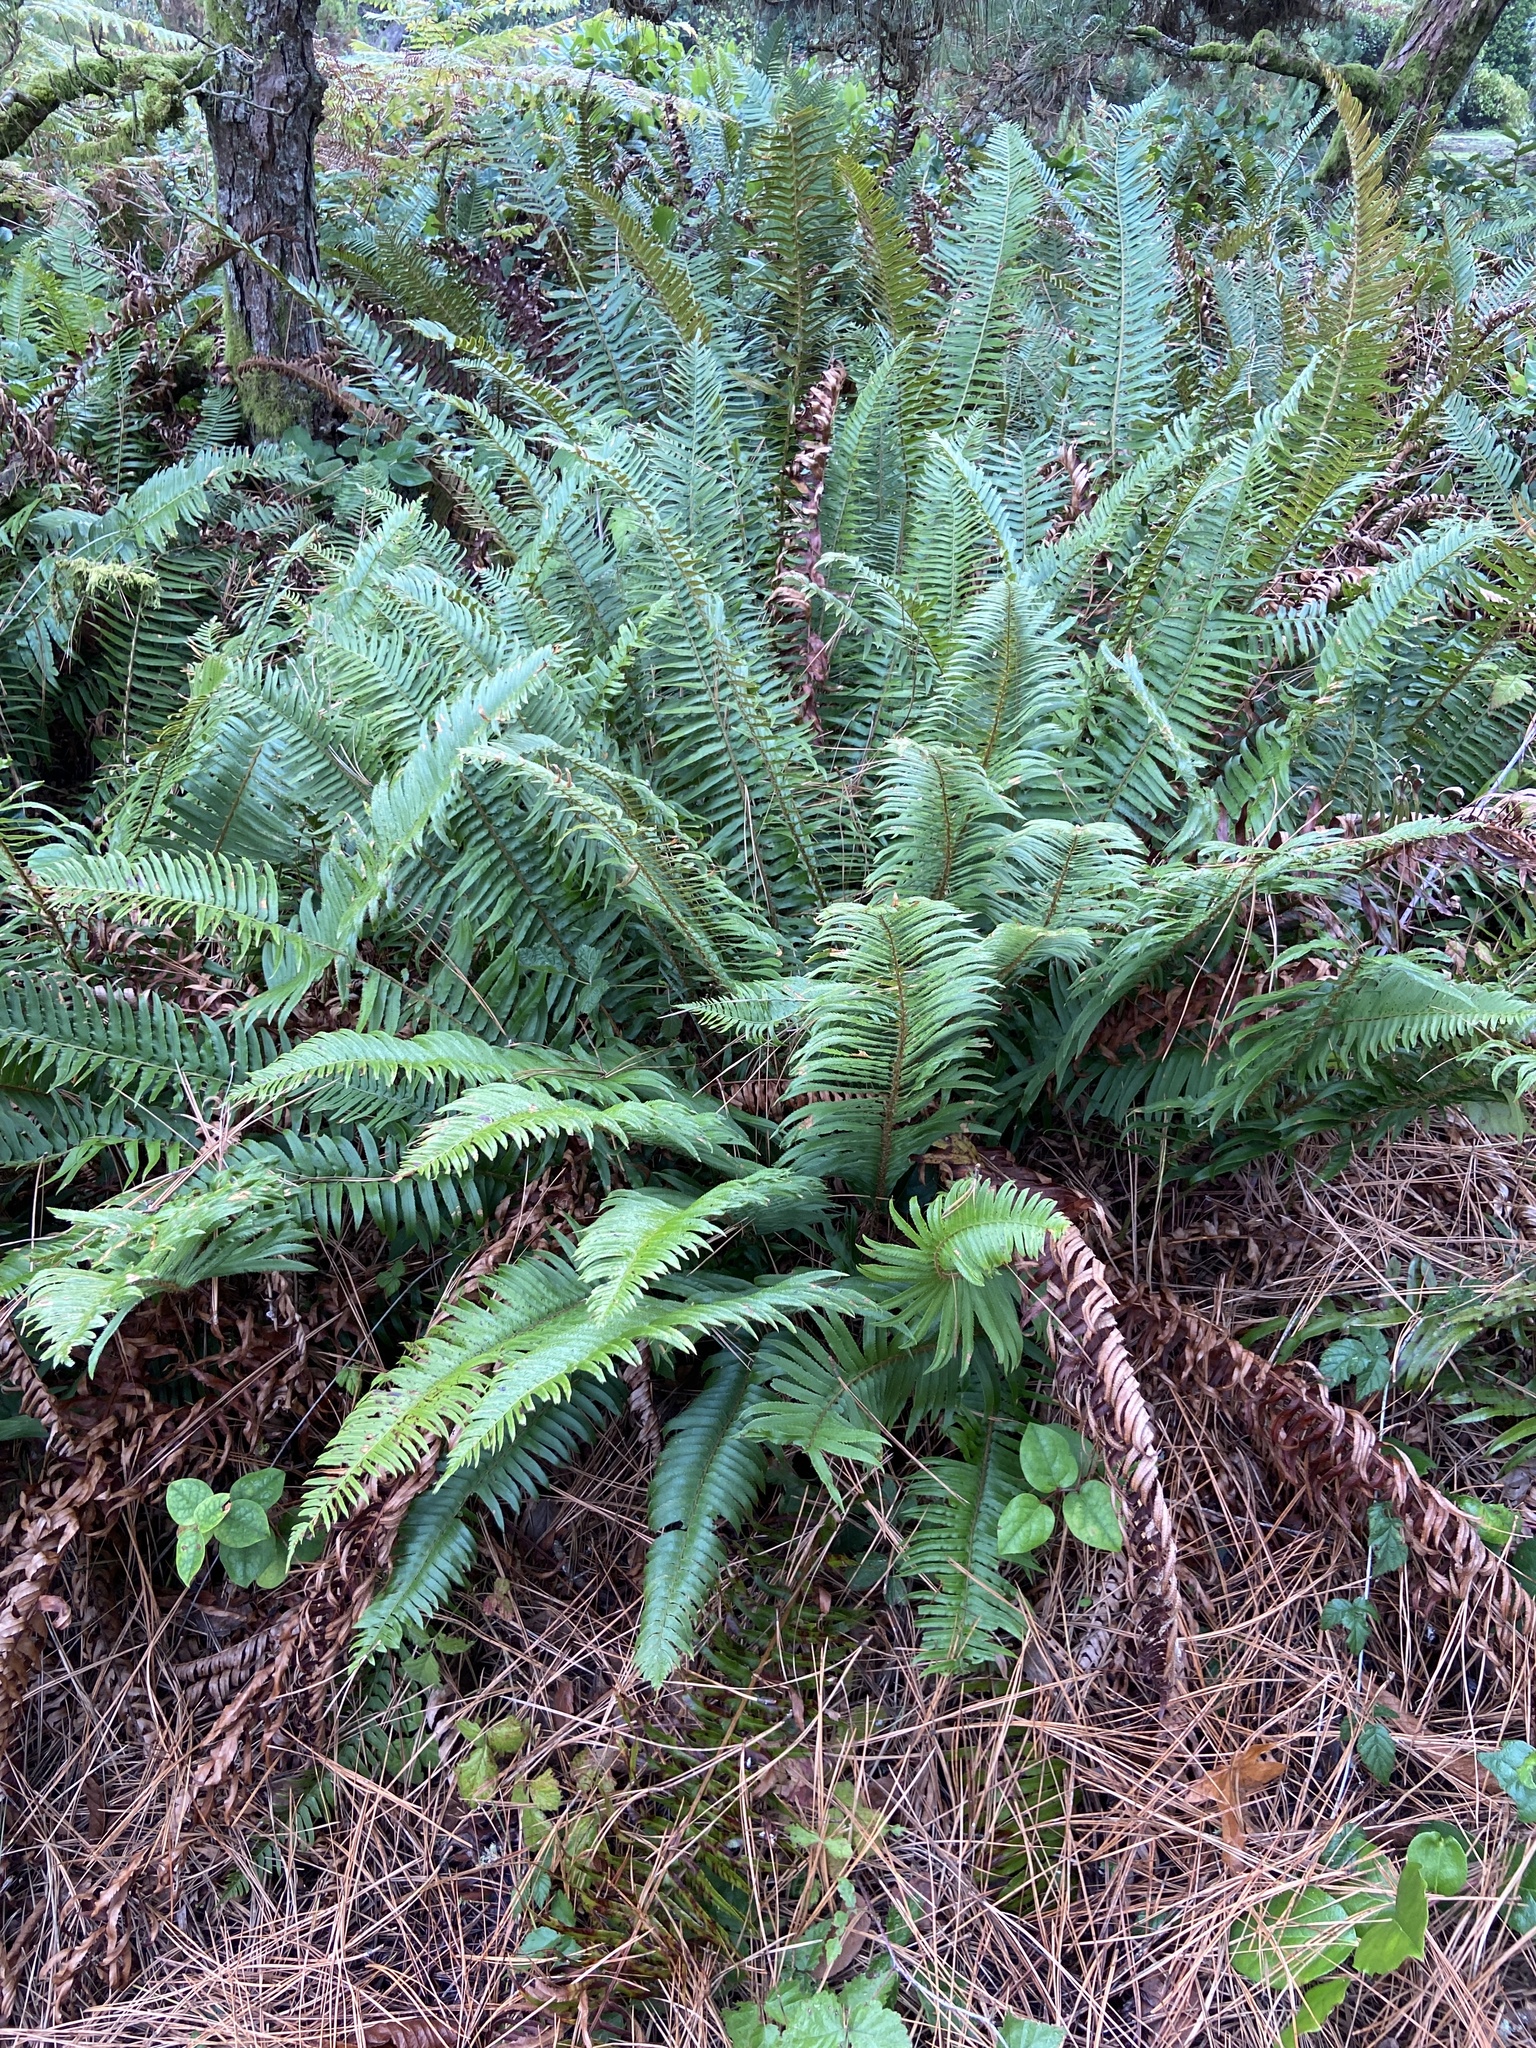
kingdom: Plantae
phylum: Tracheophyta
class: Polypodiopsida
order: Polypodiales
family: Dryopteridaceae
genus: Polystichum
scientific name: Polystichum munitum
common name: Western sword-fern
